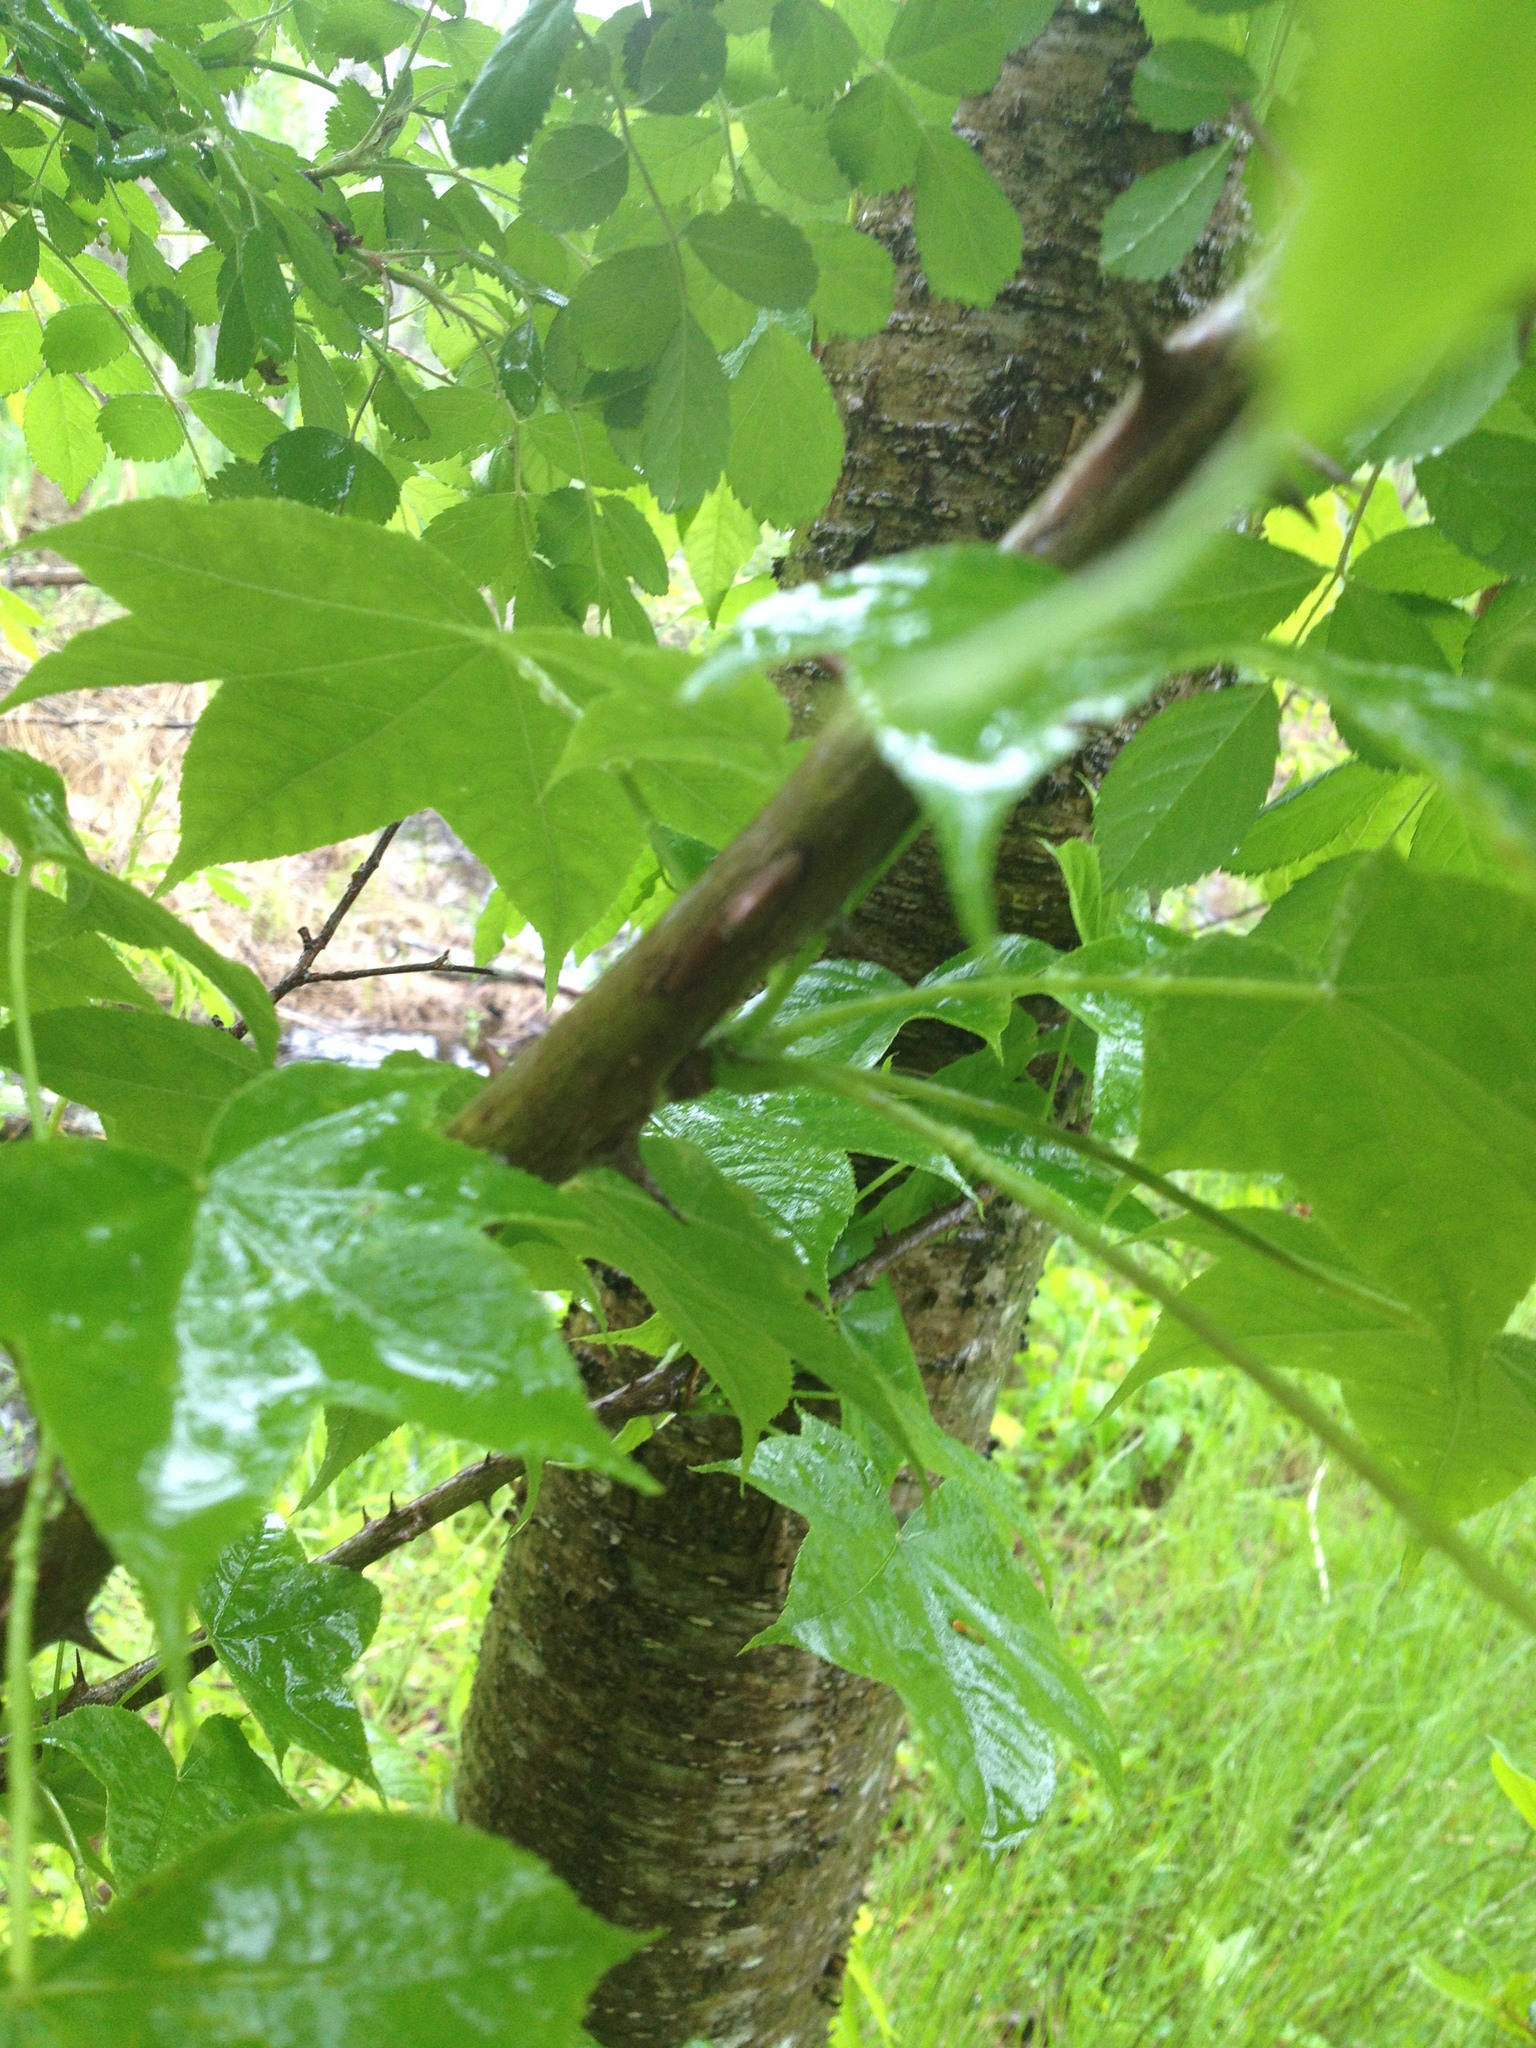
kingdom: Plantae
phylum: Tracheophyta
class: Magnoliopsida
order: Apiales
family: Araliaceae
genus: Kalopanax
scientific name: Kalopanax septemlobus
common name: Castor aralia
